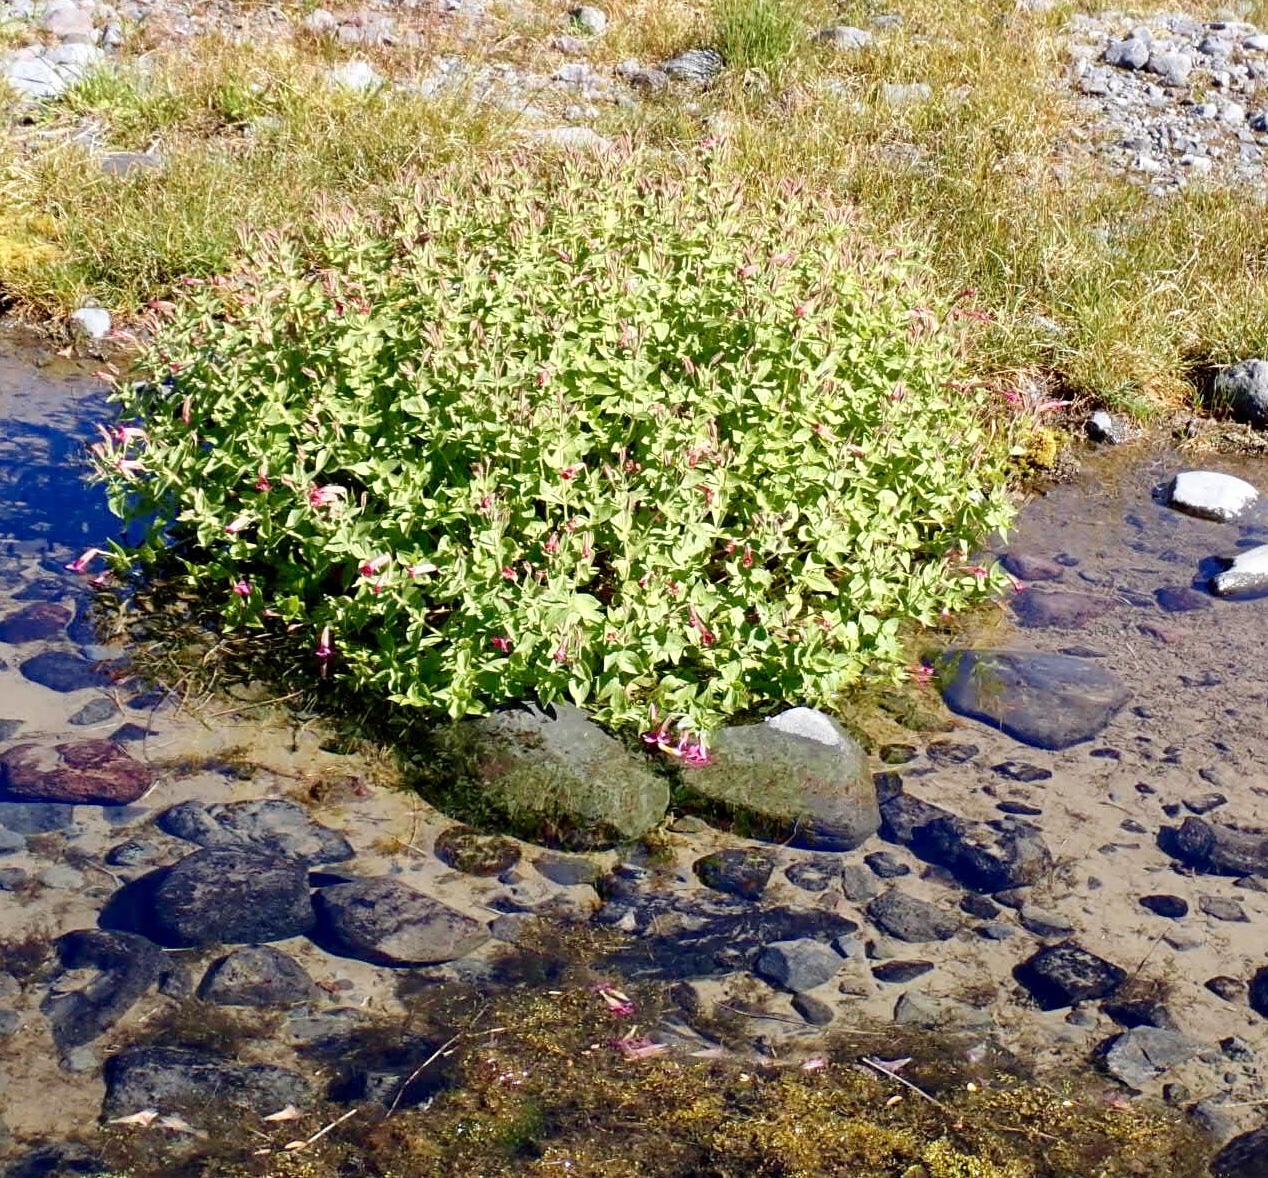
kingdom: Plantae
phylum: Tracheophyta
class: Magnoliopsida
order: Lamiales
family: Phrymaceae
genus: Erythranthe
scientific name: Erythranthe lewisii
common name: Lewis's monkey-flower
